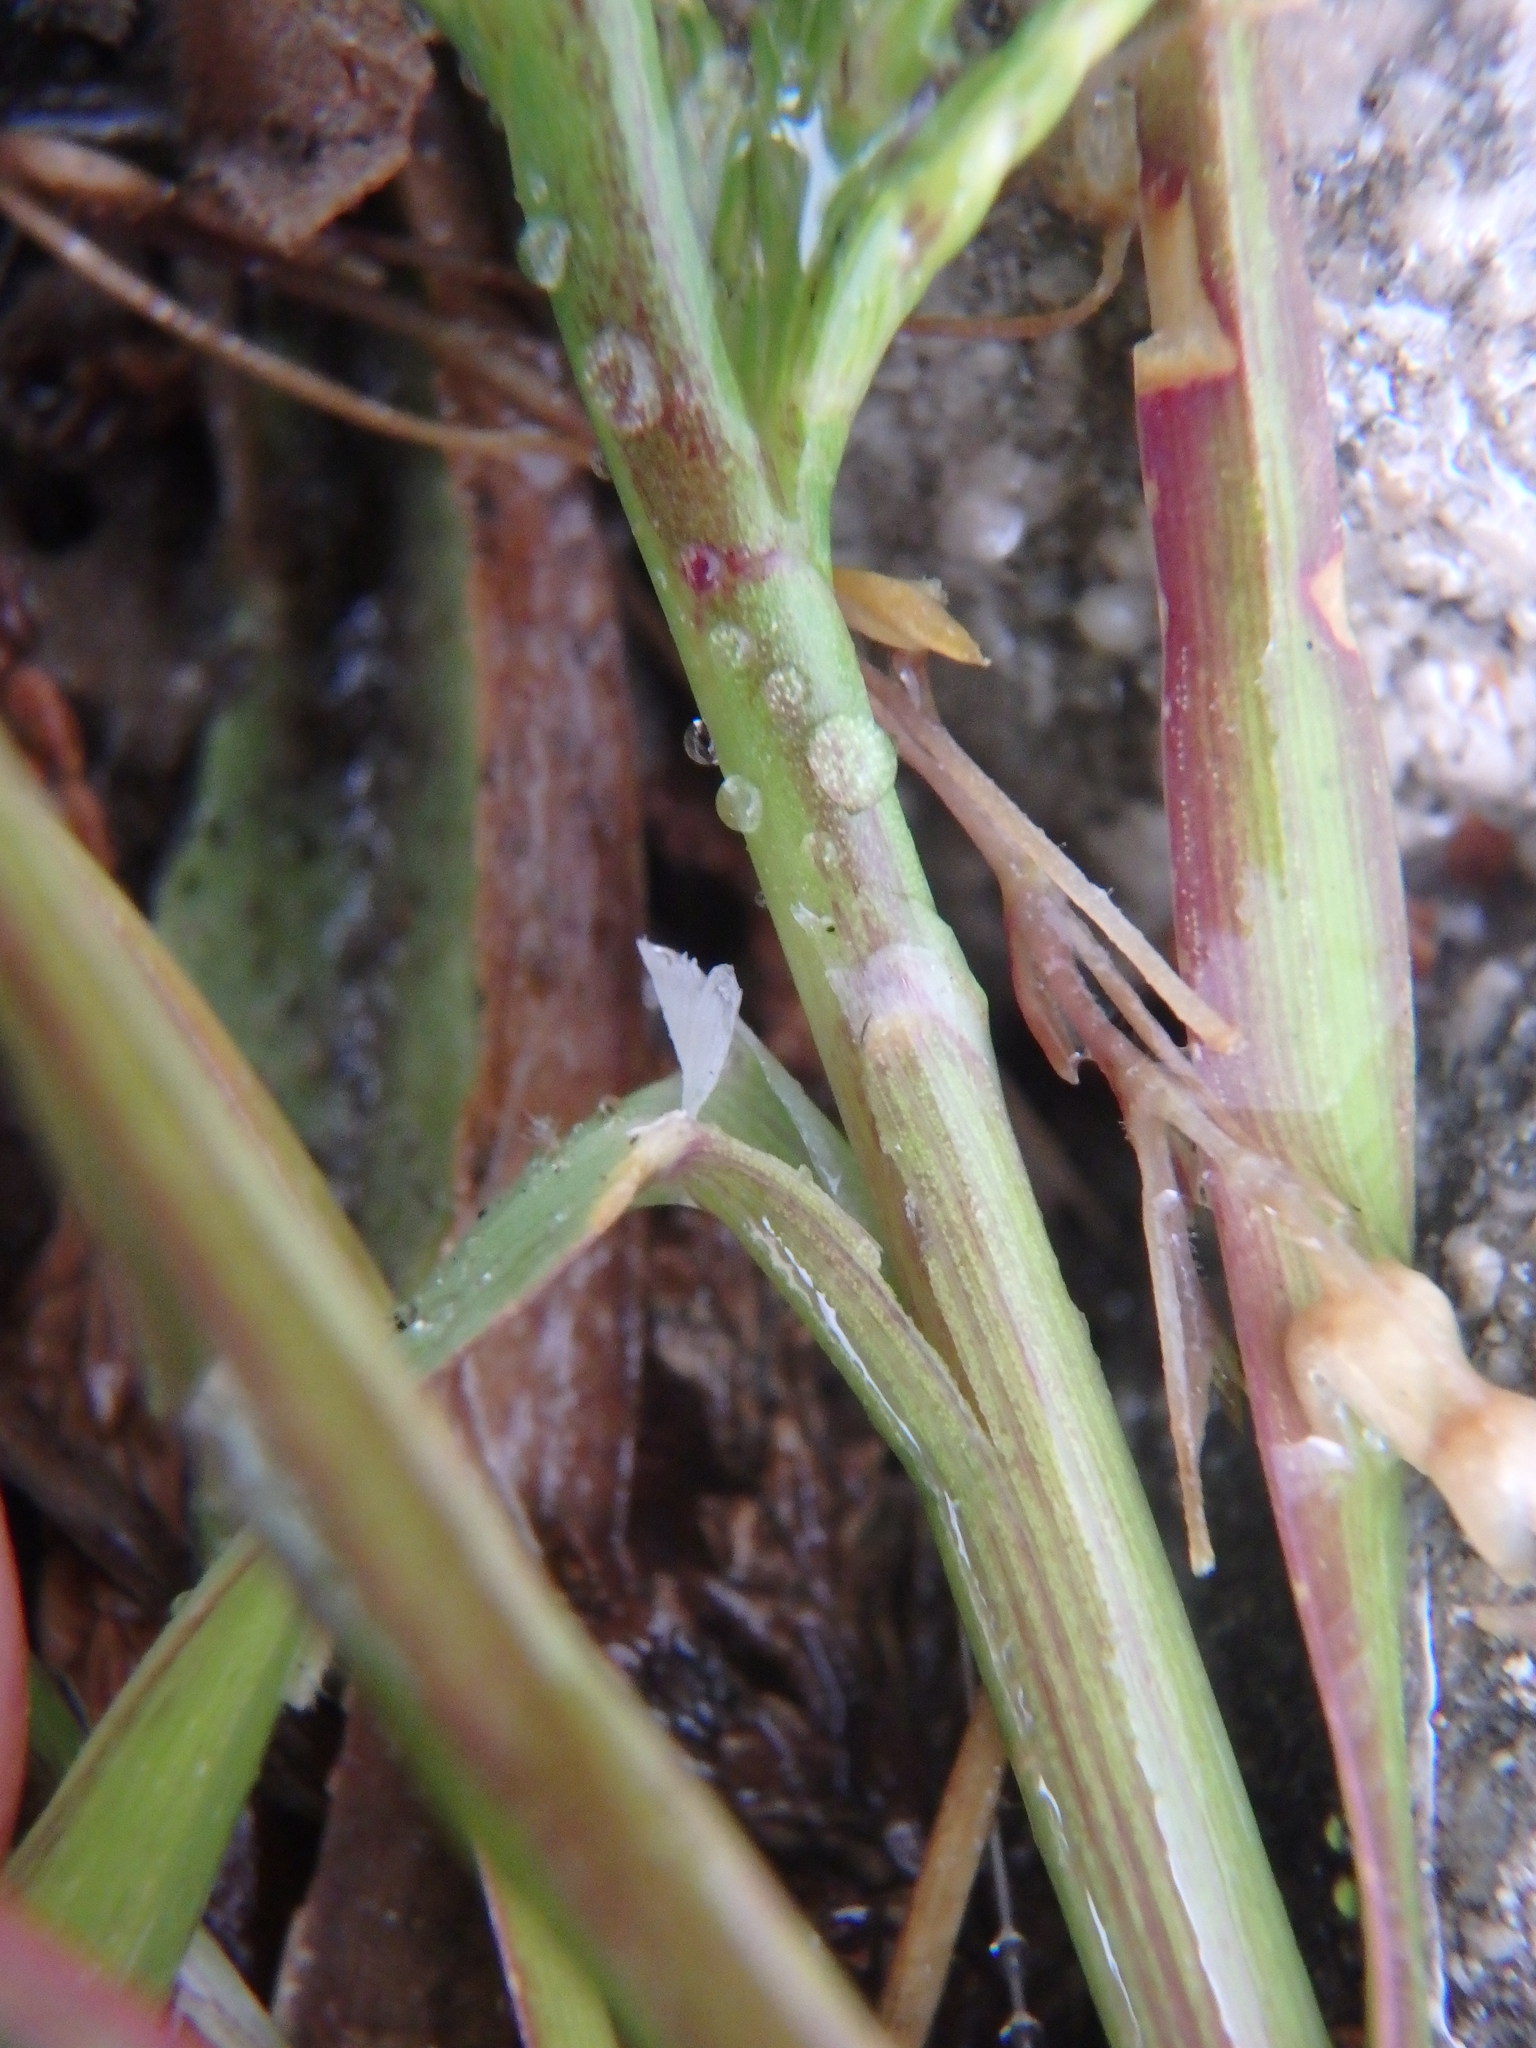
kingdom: Plantae
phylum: Tracheophyta
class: Liliopsida
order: Poales
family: Poaceae
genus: Catapodium
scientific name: Catapodium rigidum
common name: Fern-grass
